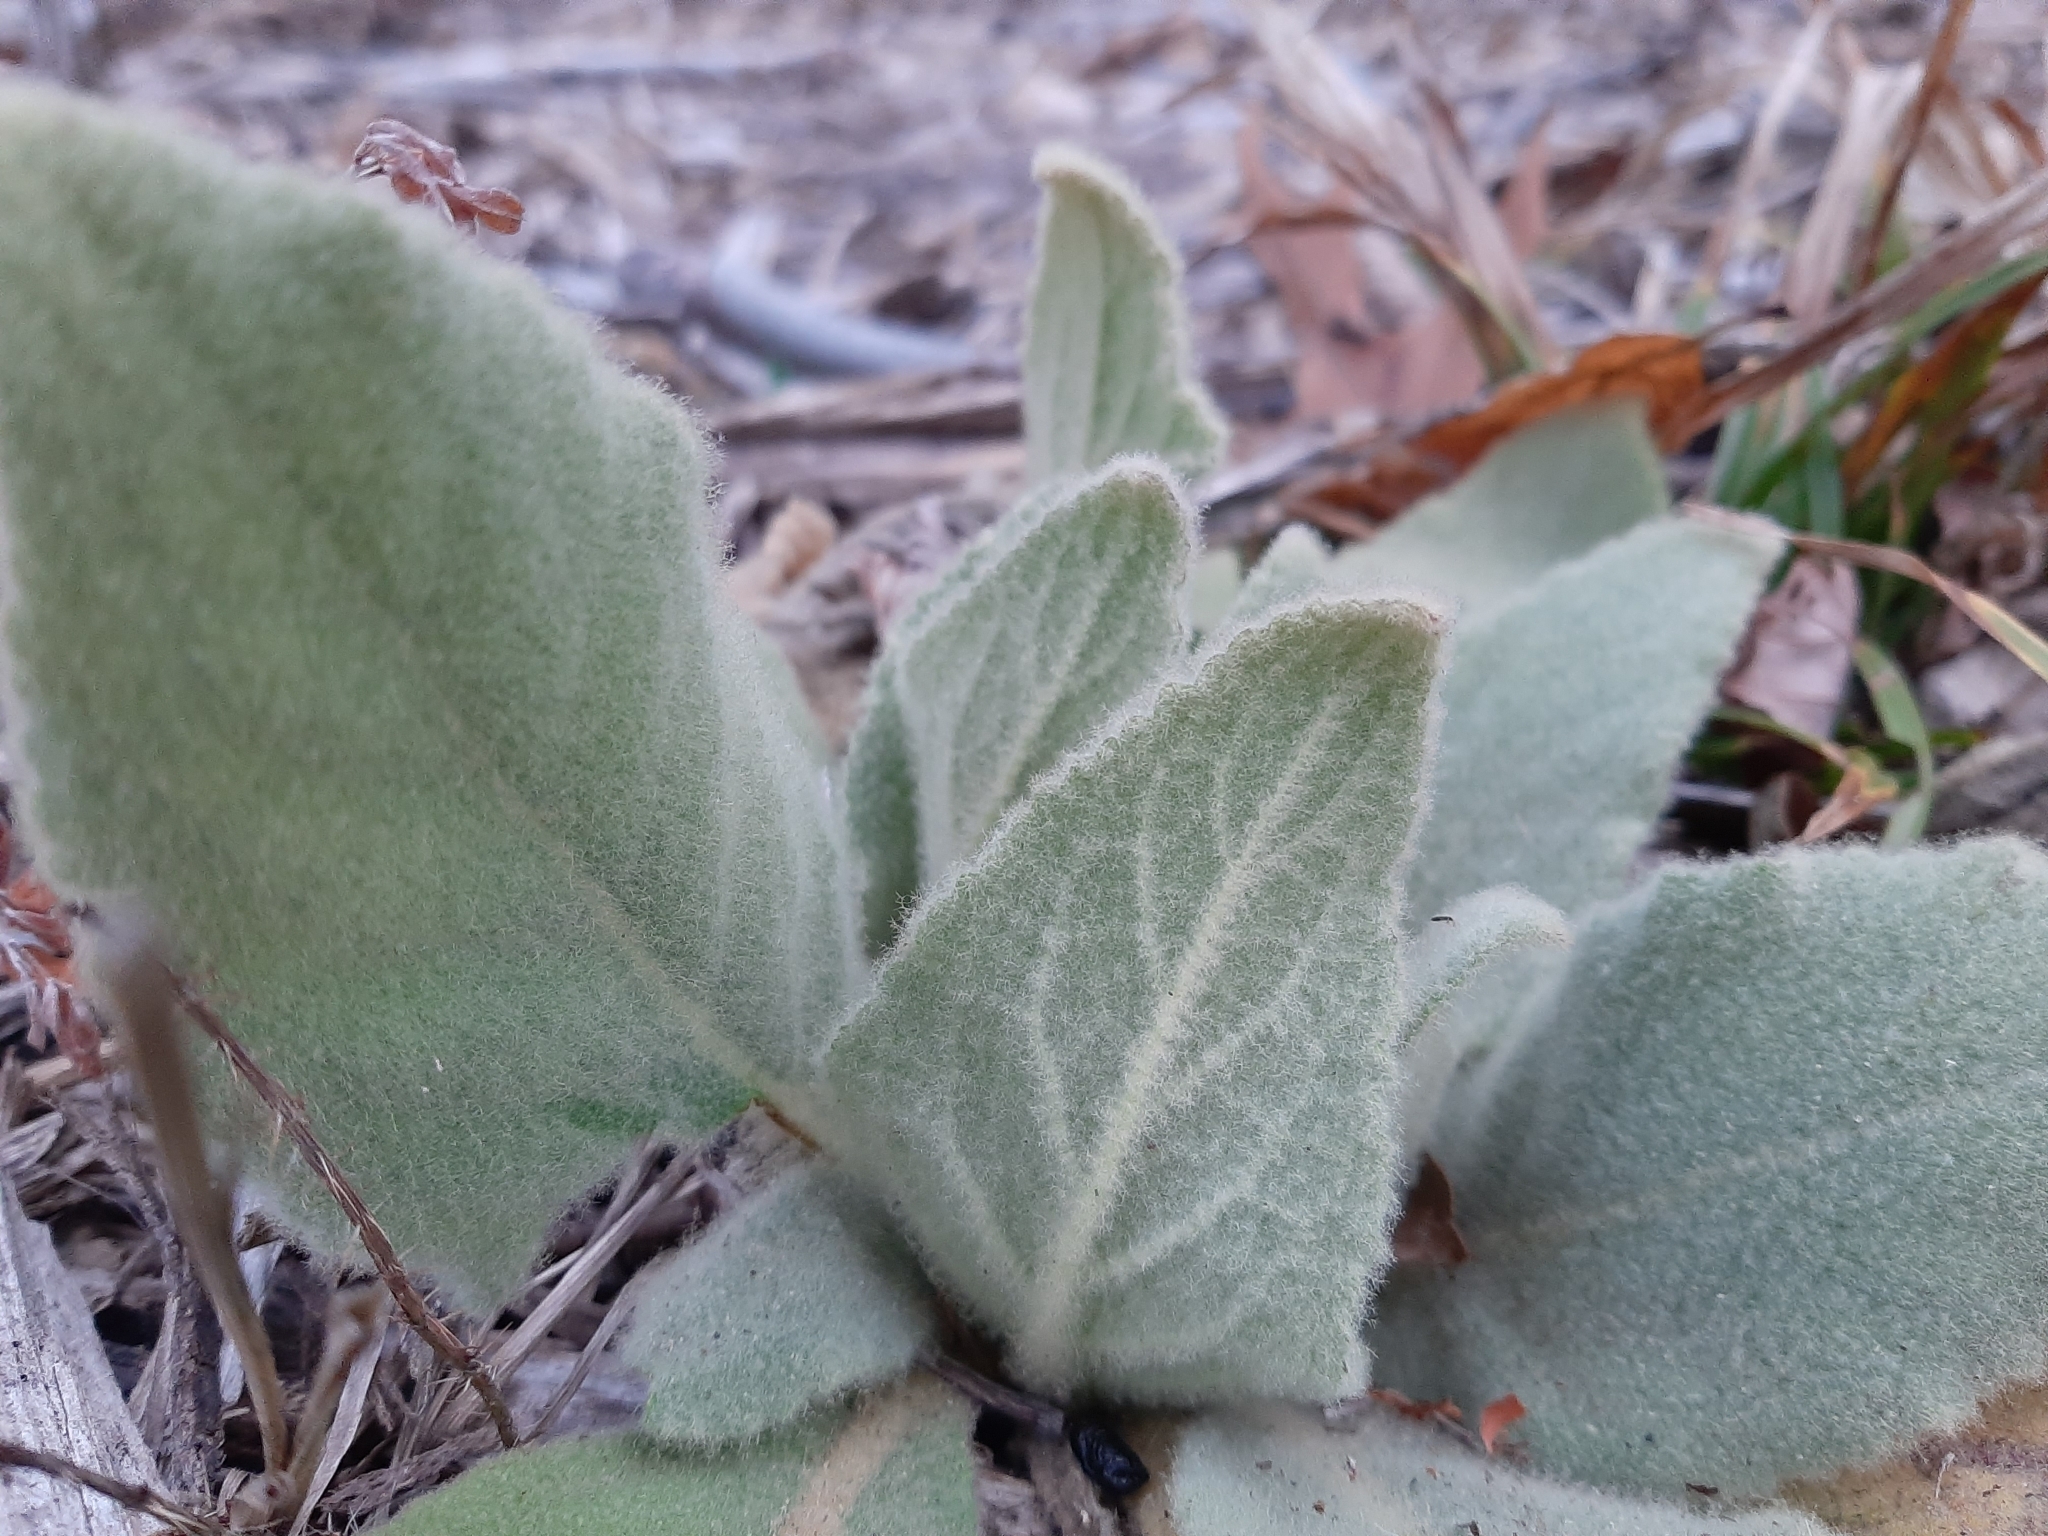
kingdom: Plantae
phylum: Tracheophyta
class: Magnoliopsida
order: Lamiales
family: Scrophulariaceae
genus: Verbascum
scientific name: Verbascum thapsus
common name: Common mullein
